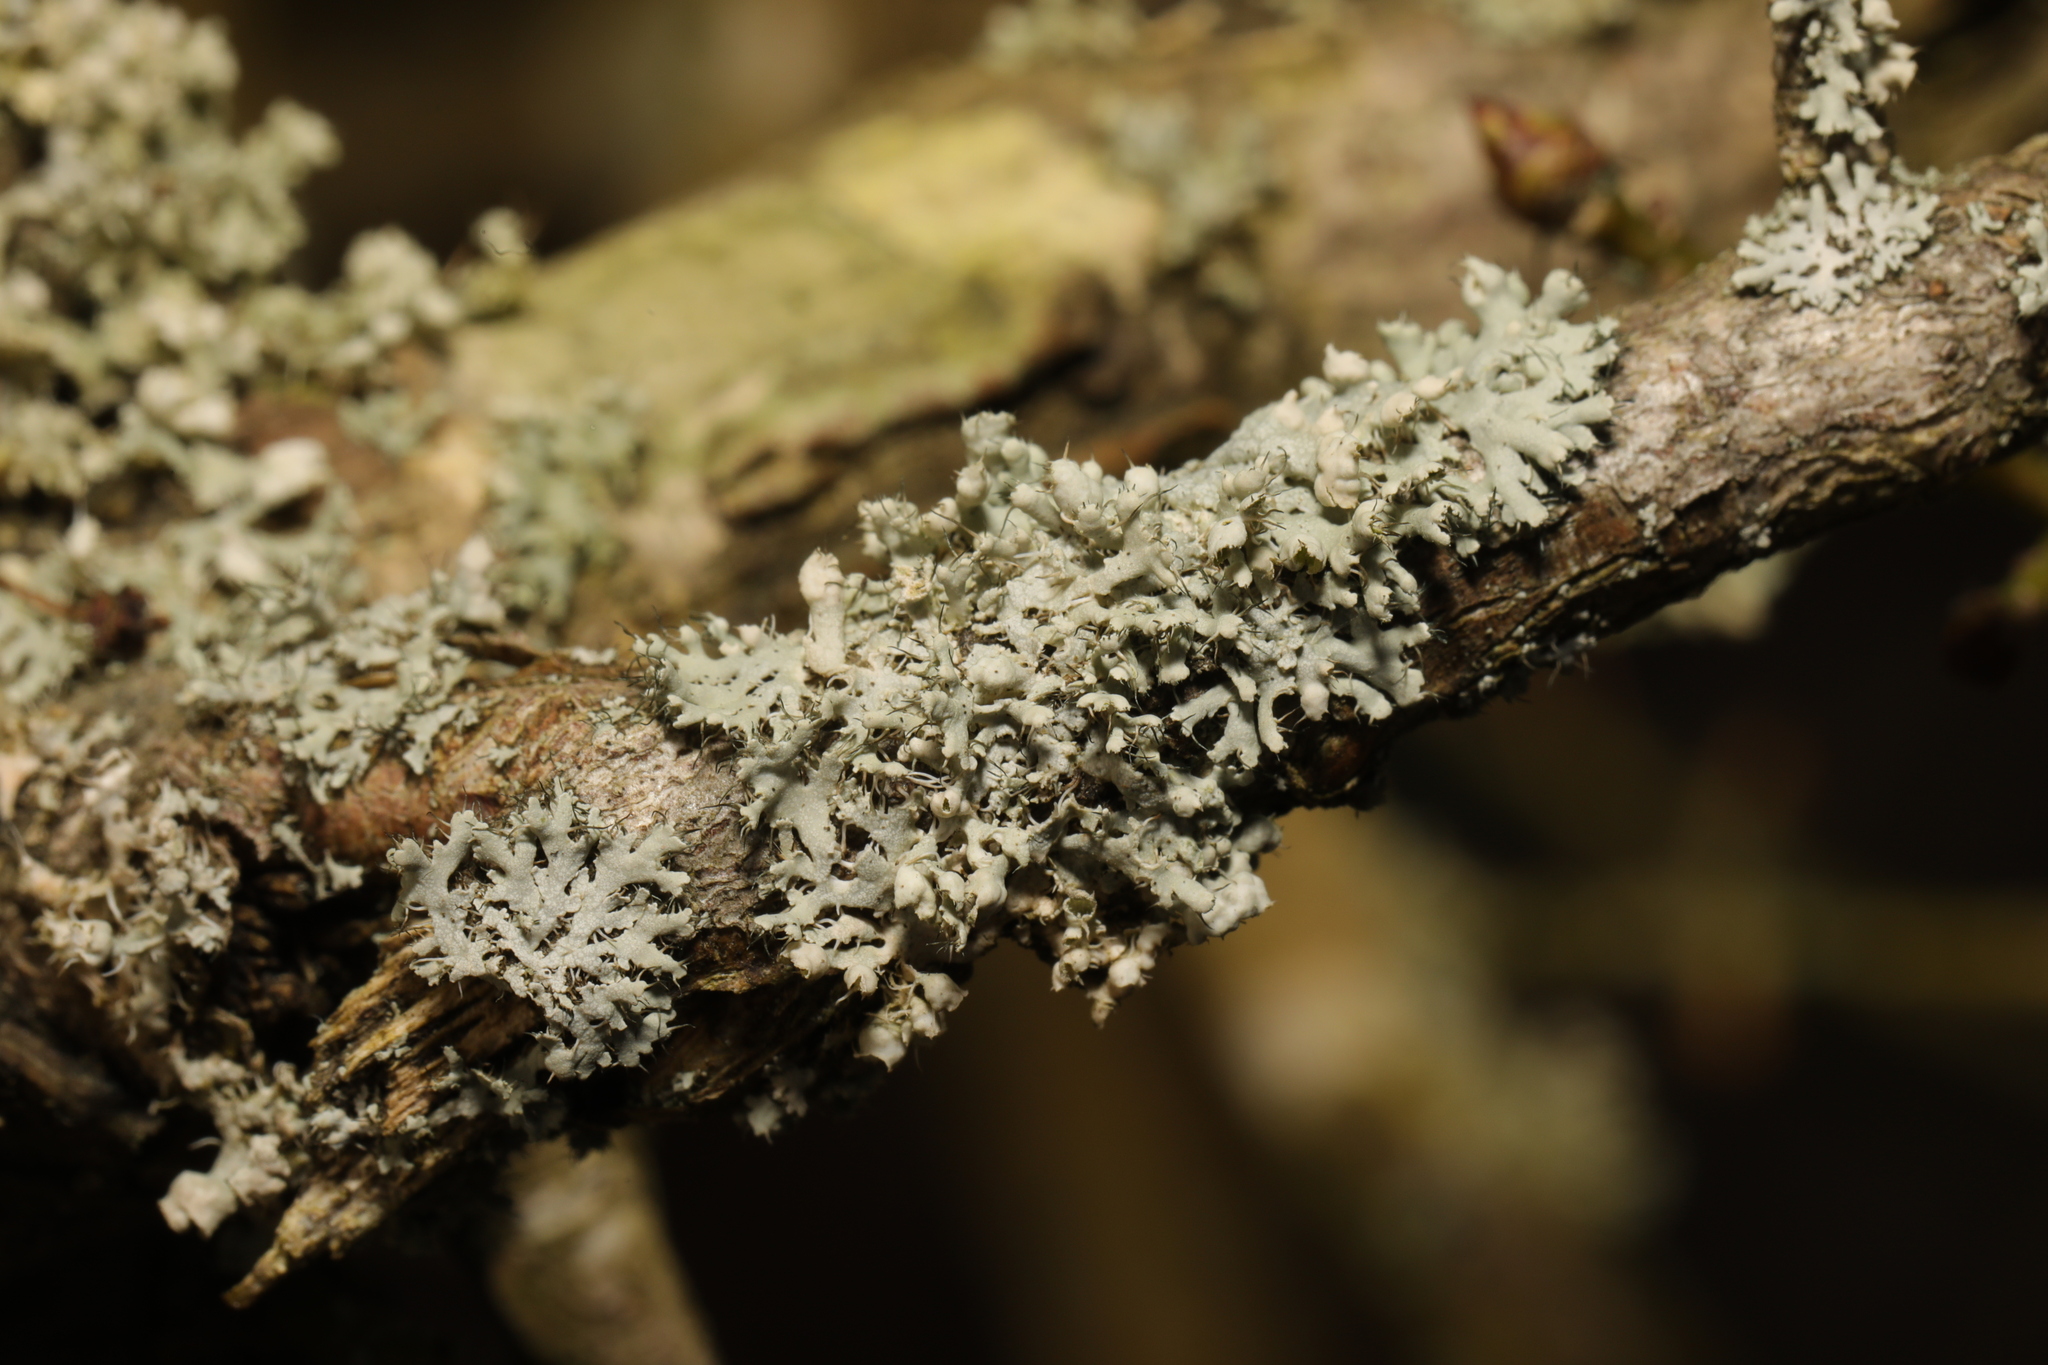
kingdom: Fungi
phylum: Ascomycota
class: Lecanoromycetes
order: Caliciales
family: Physciaceae
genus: Physcia
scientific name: Physcia adscendens
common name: Hooded rosette lichen
